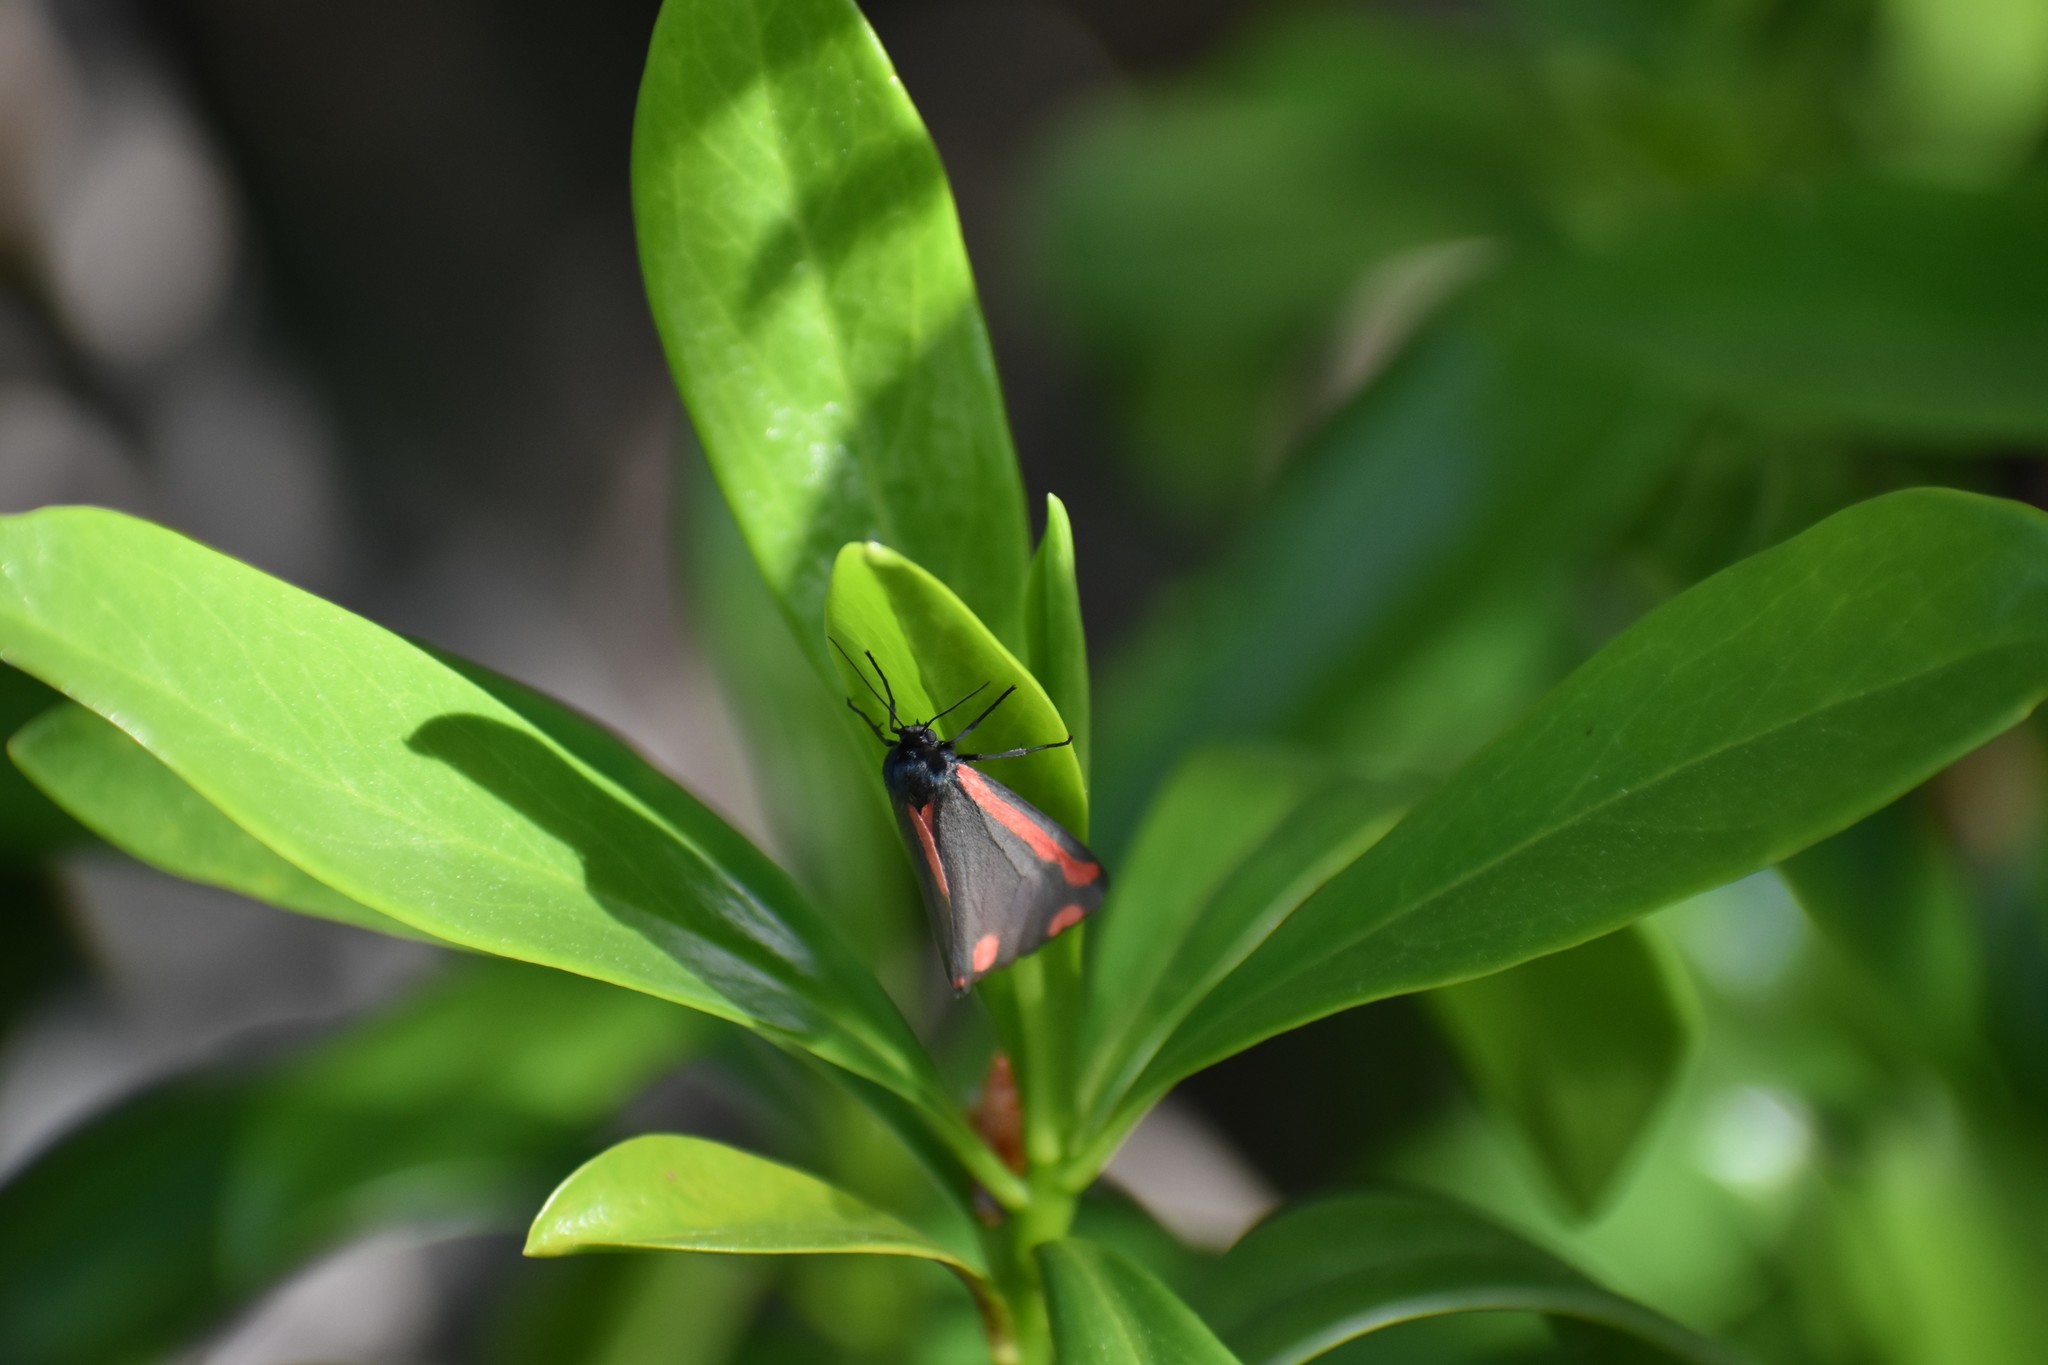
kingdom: Animalia
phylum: Arthropoda
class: Insecta
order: Lepidoptera
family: Erebidae
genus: Tyria
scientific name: Tyria jacobaeae
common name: Cinnabar
